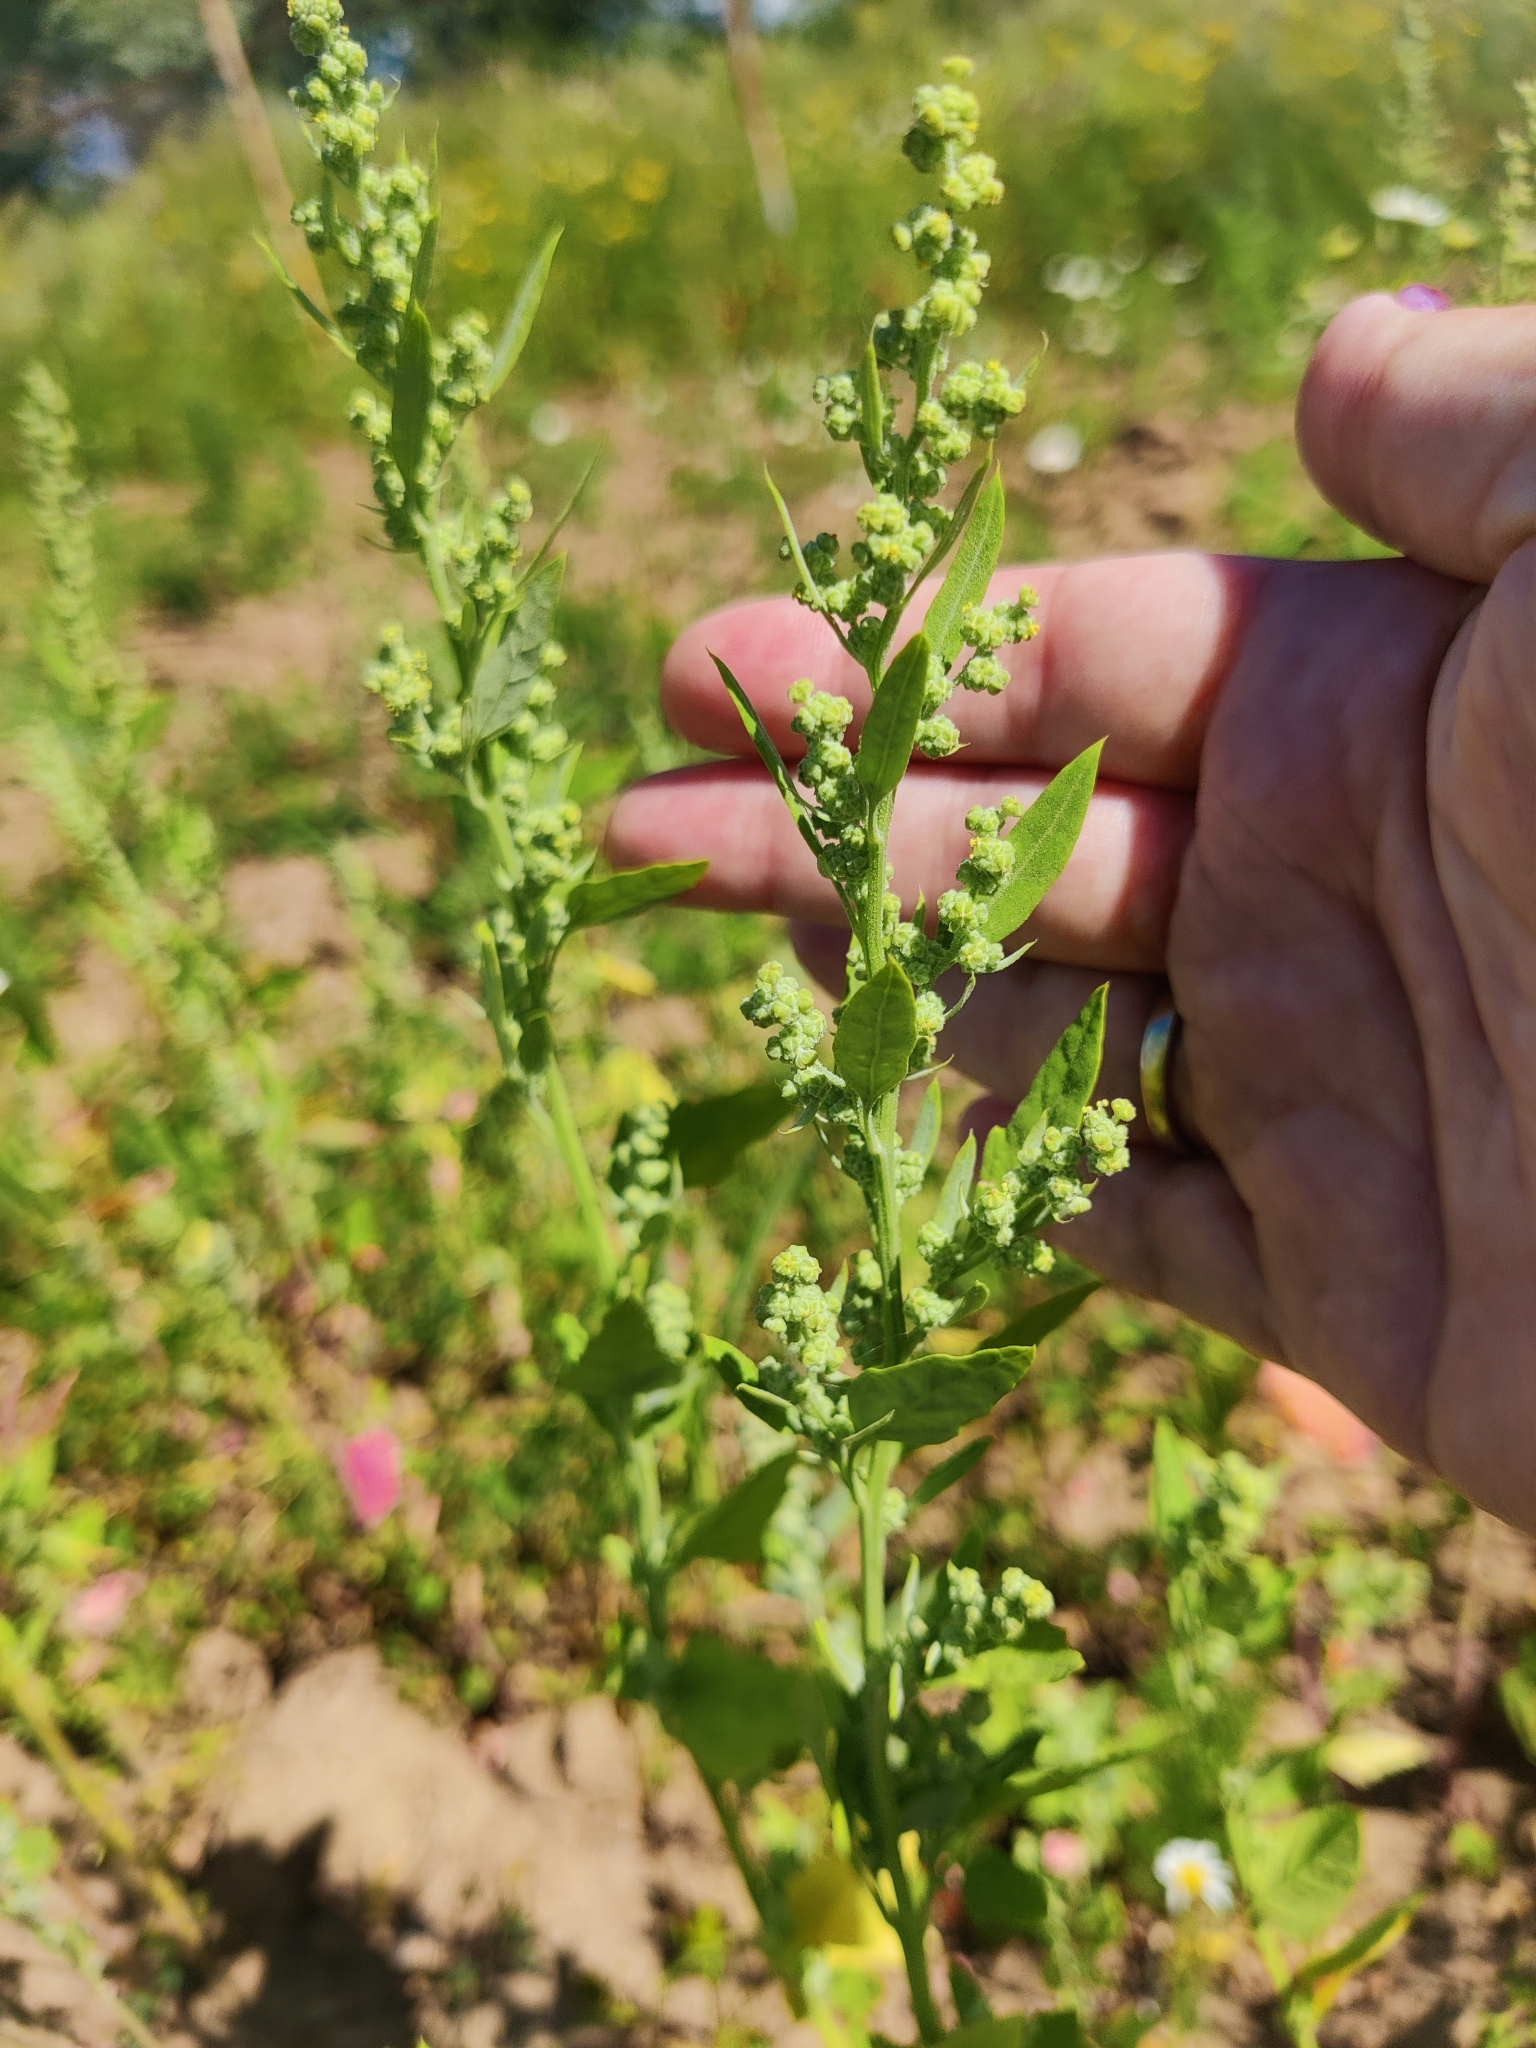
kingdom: Plantae
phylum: Tracheophyta
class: Magnoliopsida
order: Caryophyllales
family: Amaranthaceae
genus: Chenopodium
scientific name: Chenopodium album
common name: Fat-hen
